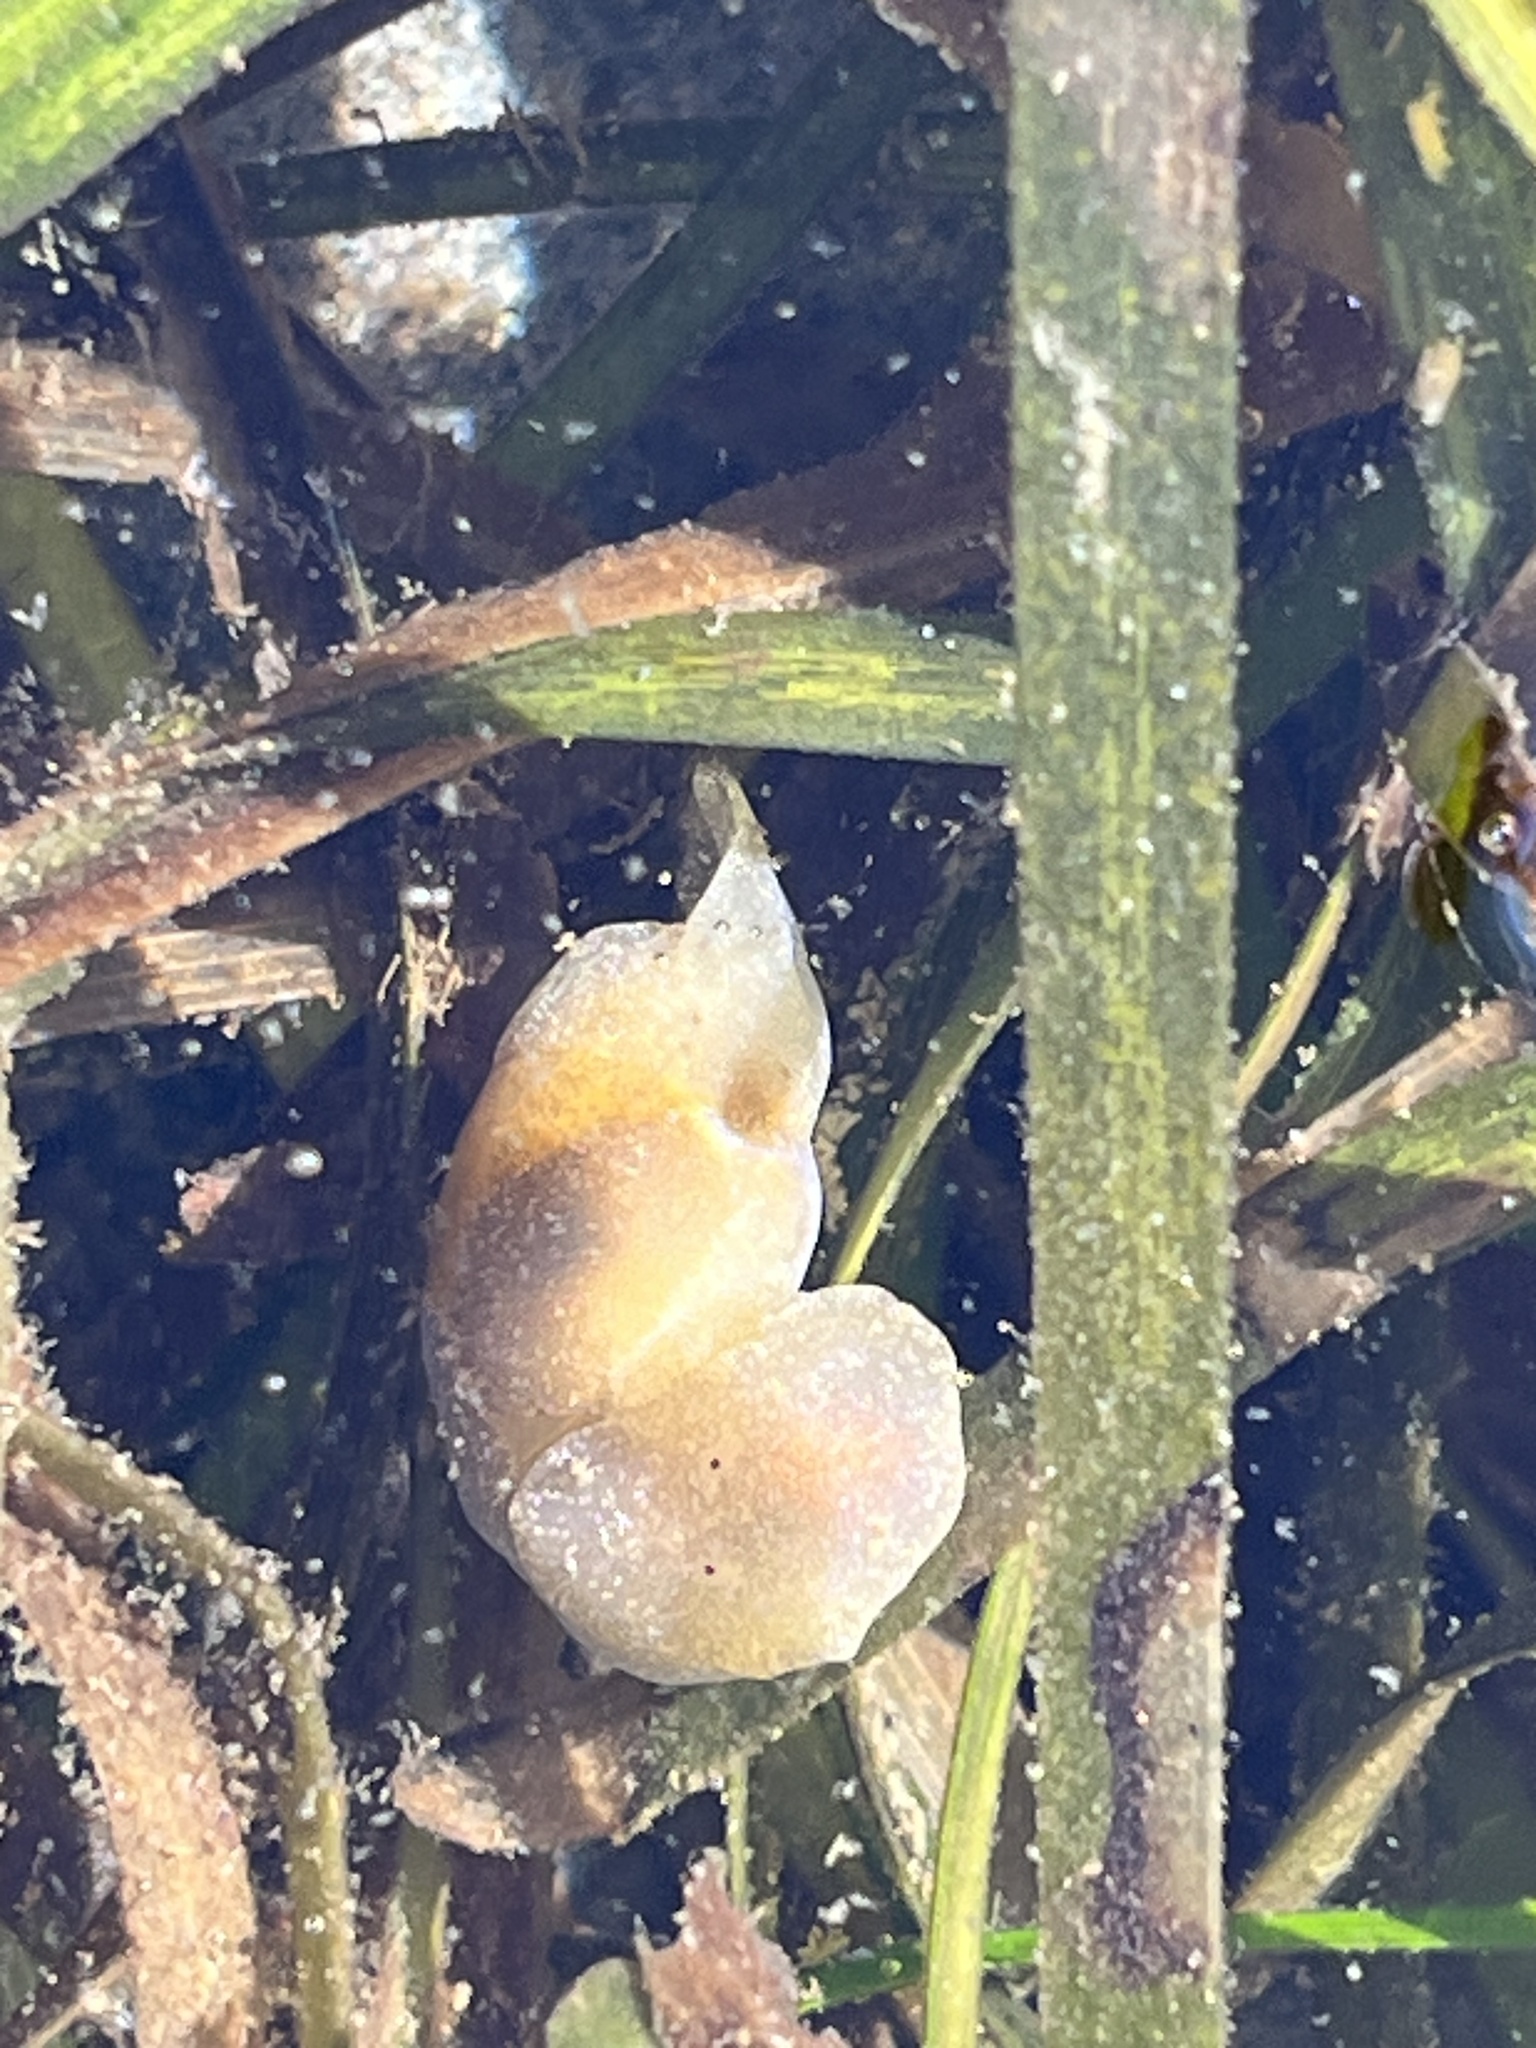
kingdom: Animalia
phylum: Mollusca
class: Gastropoda
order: Cephalaspidea
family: Haminoeidae
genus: Haminoea
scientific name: Haminoea vesicula
